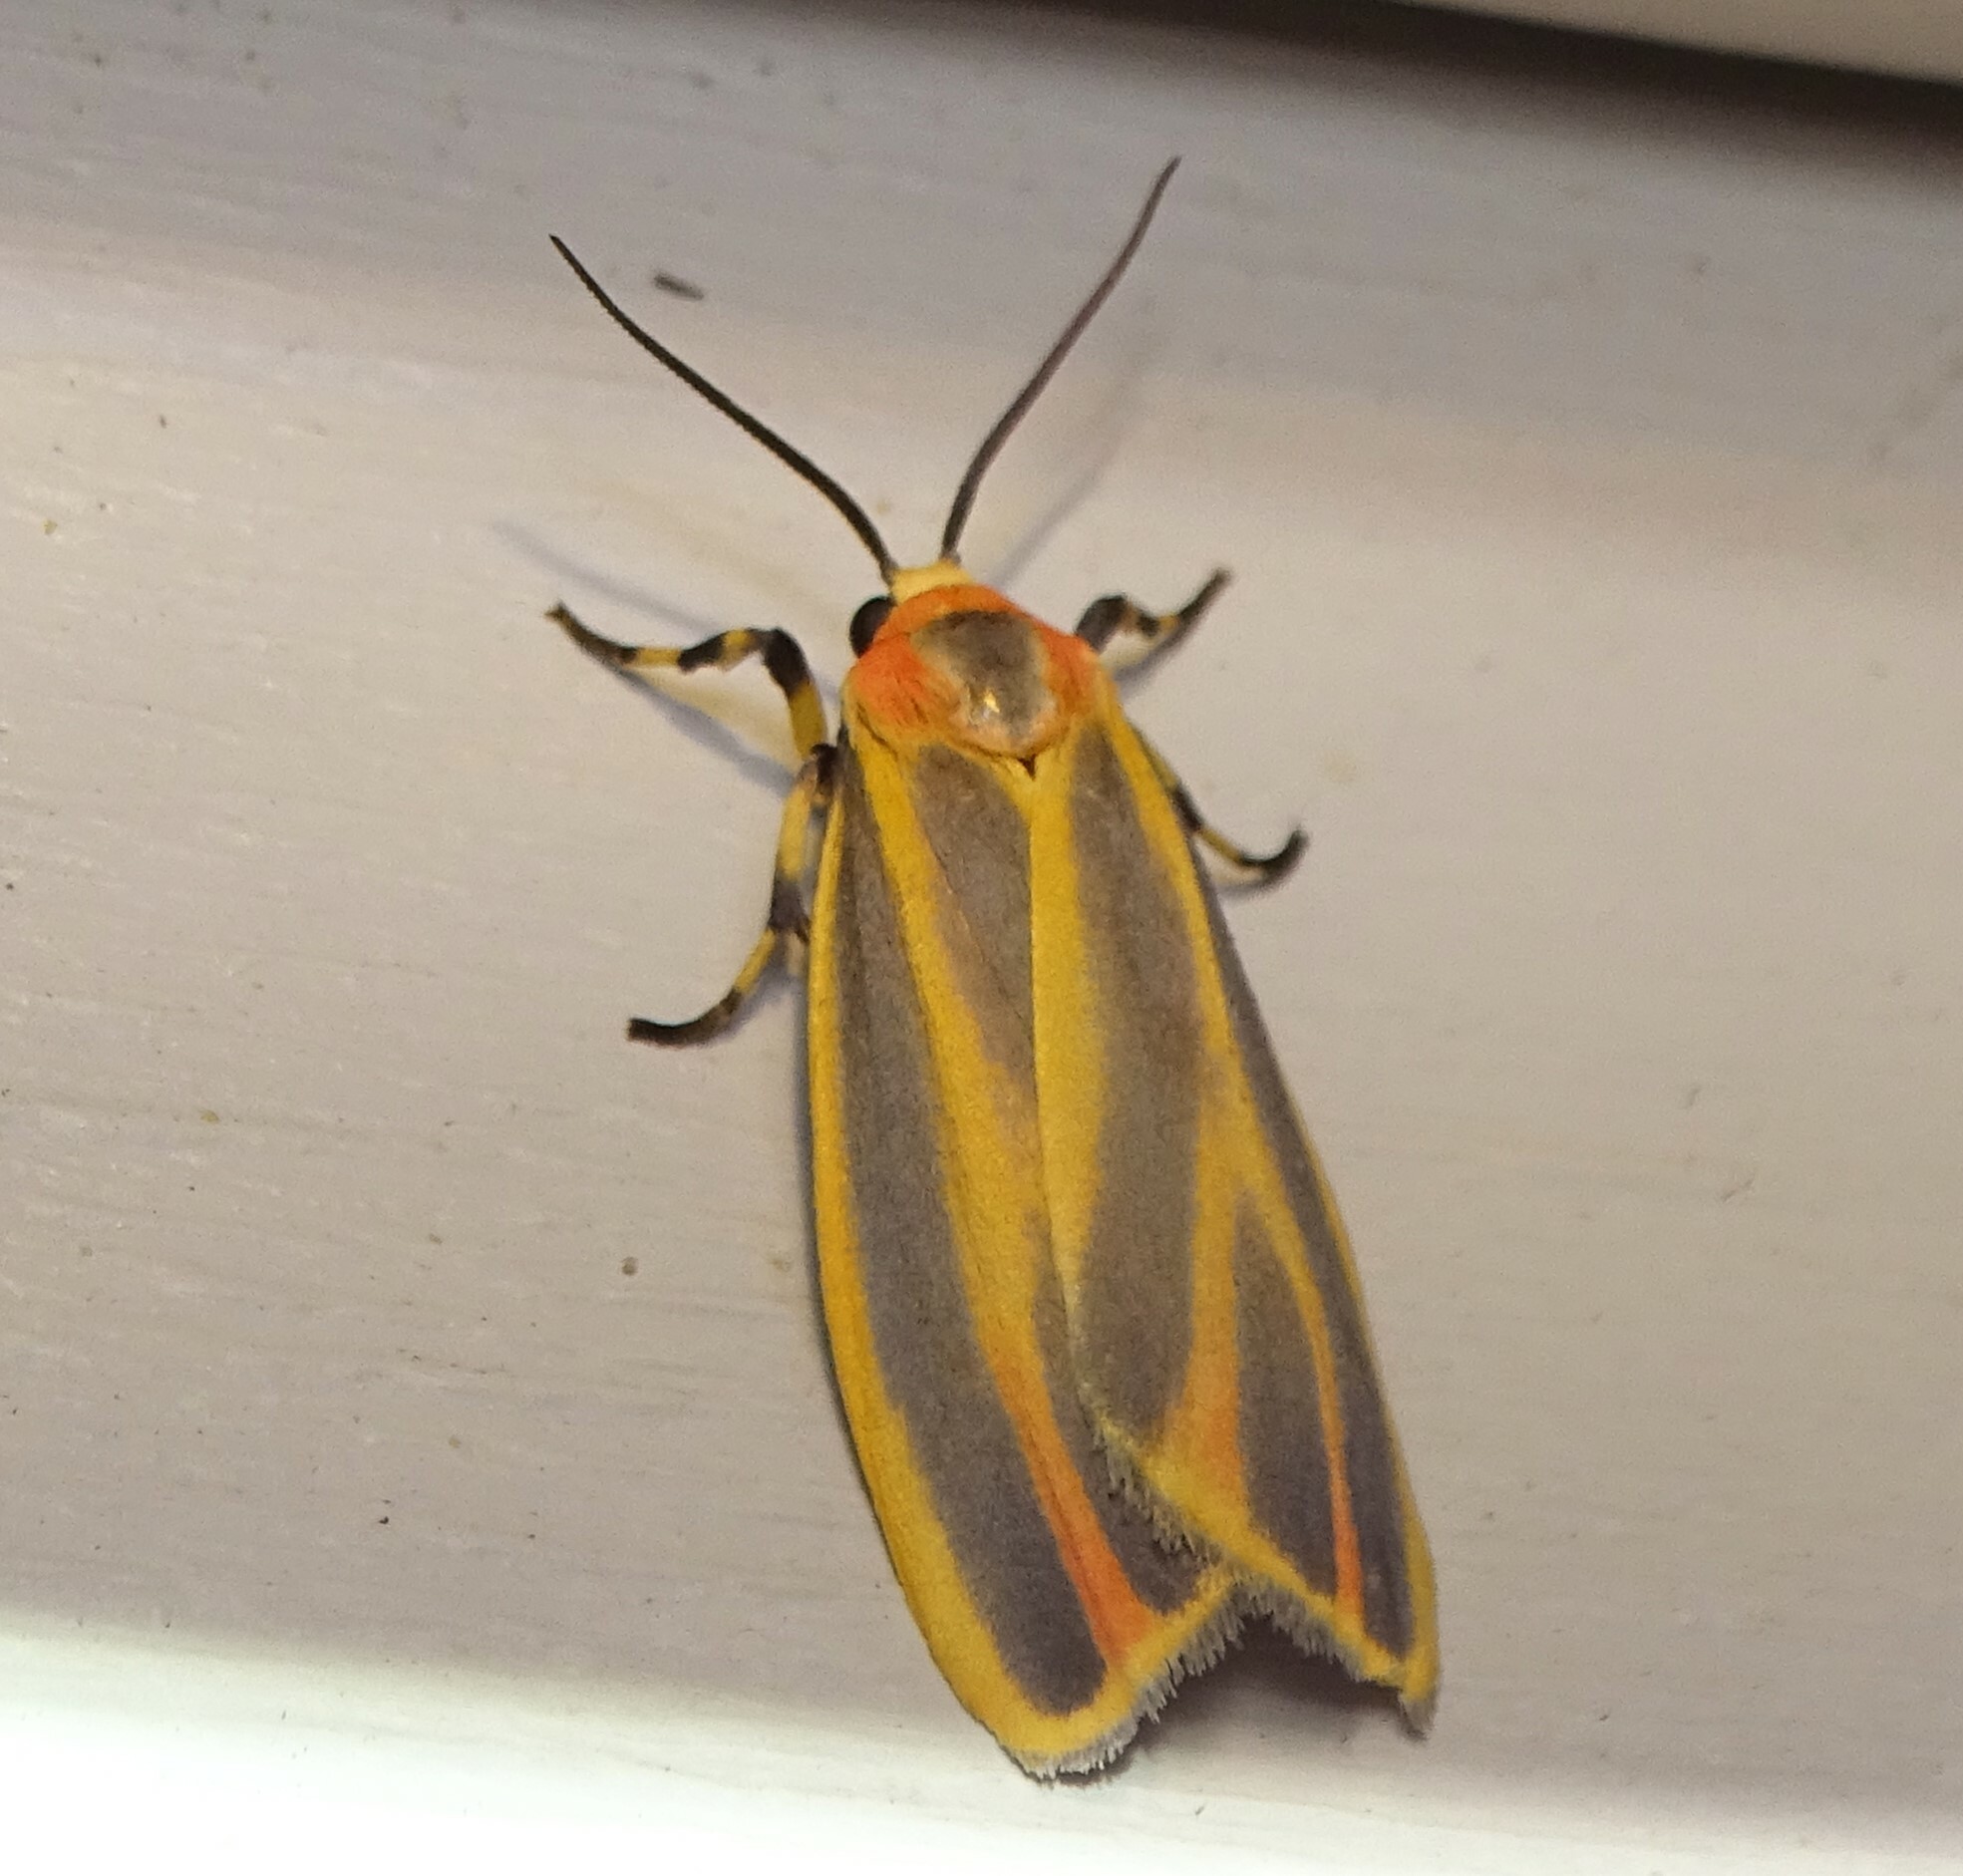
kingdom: Animalia
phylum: Arthropoda
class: Insecta
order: Lepidoptera
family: Erebidae
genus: Hypoprepia
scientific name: Hypoprepia fucosa
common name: Painted lichen moth
